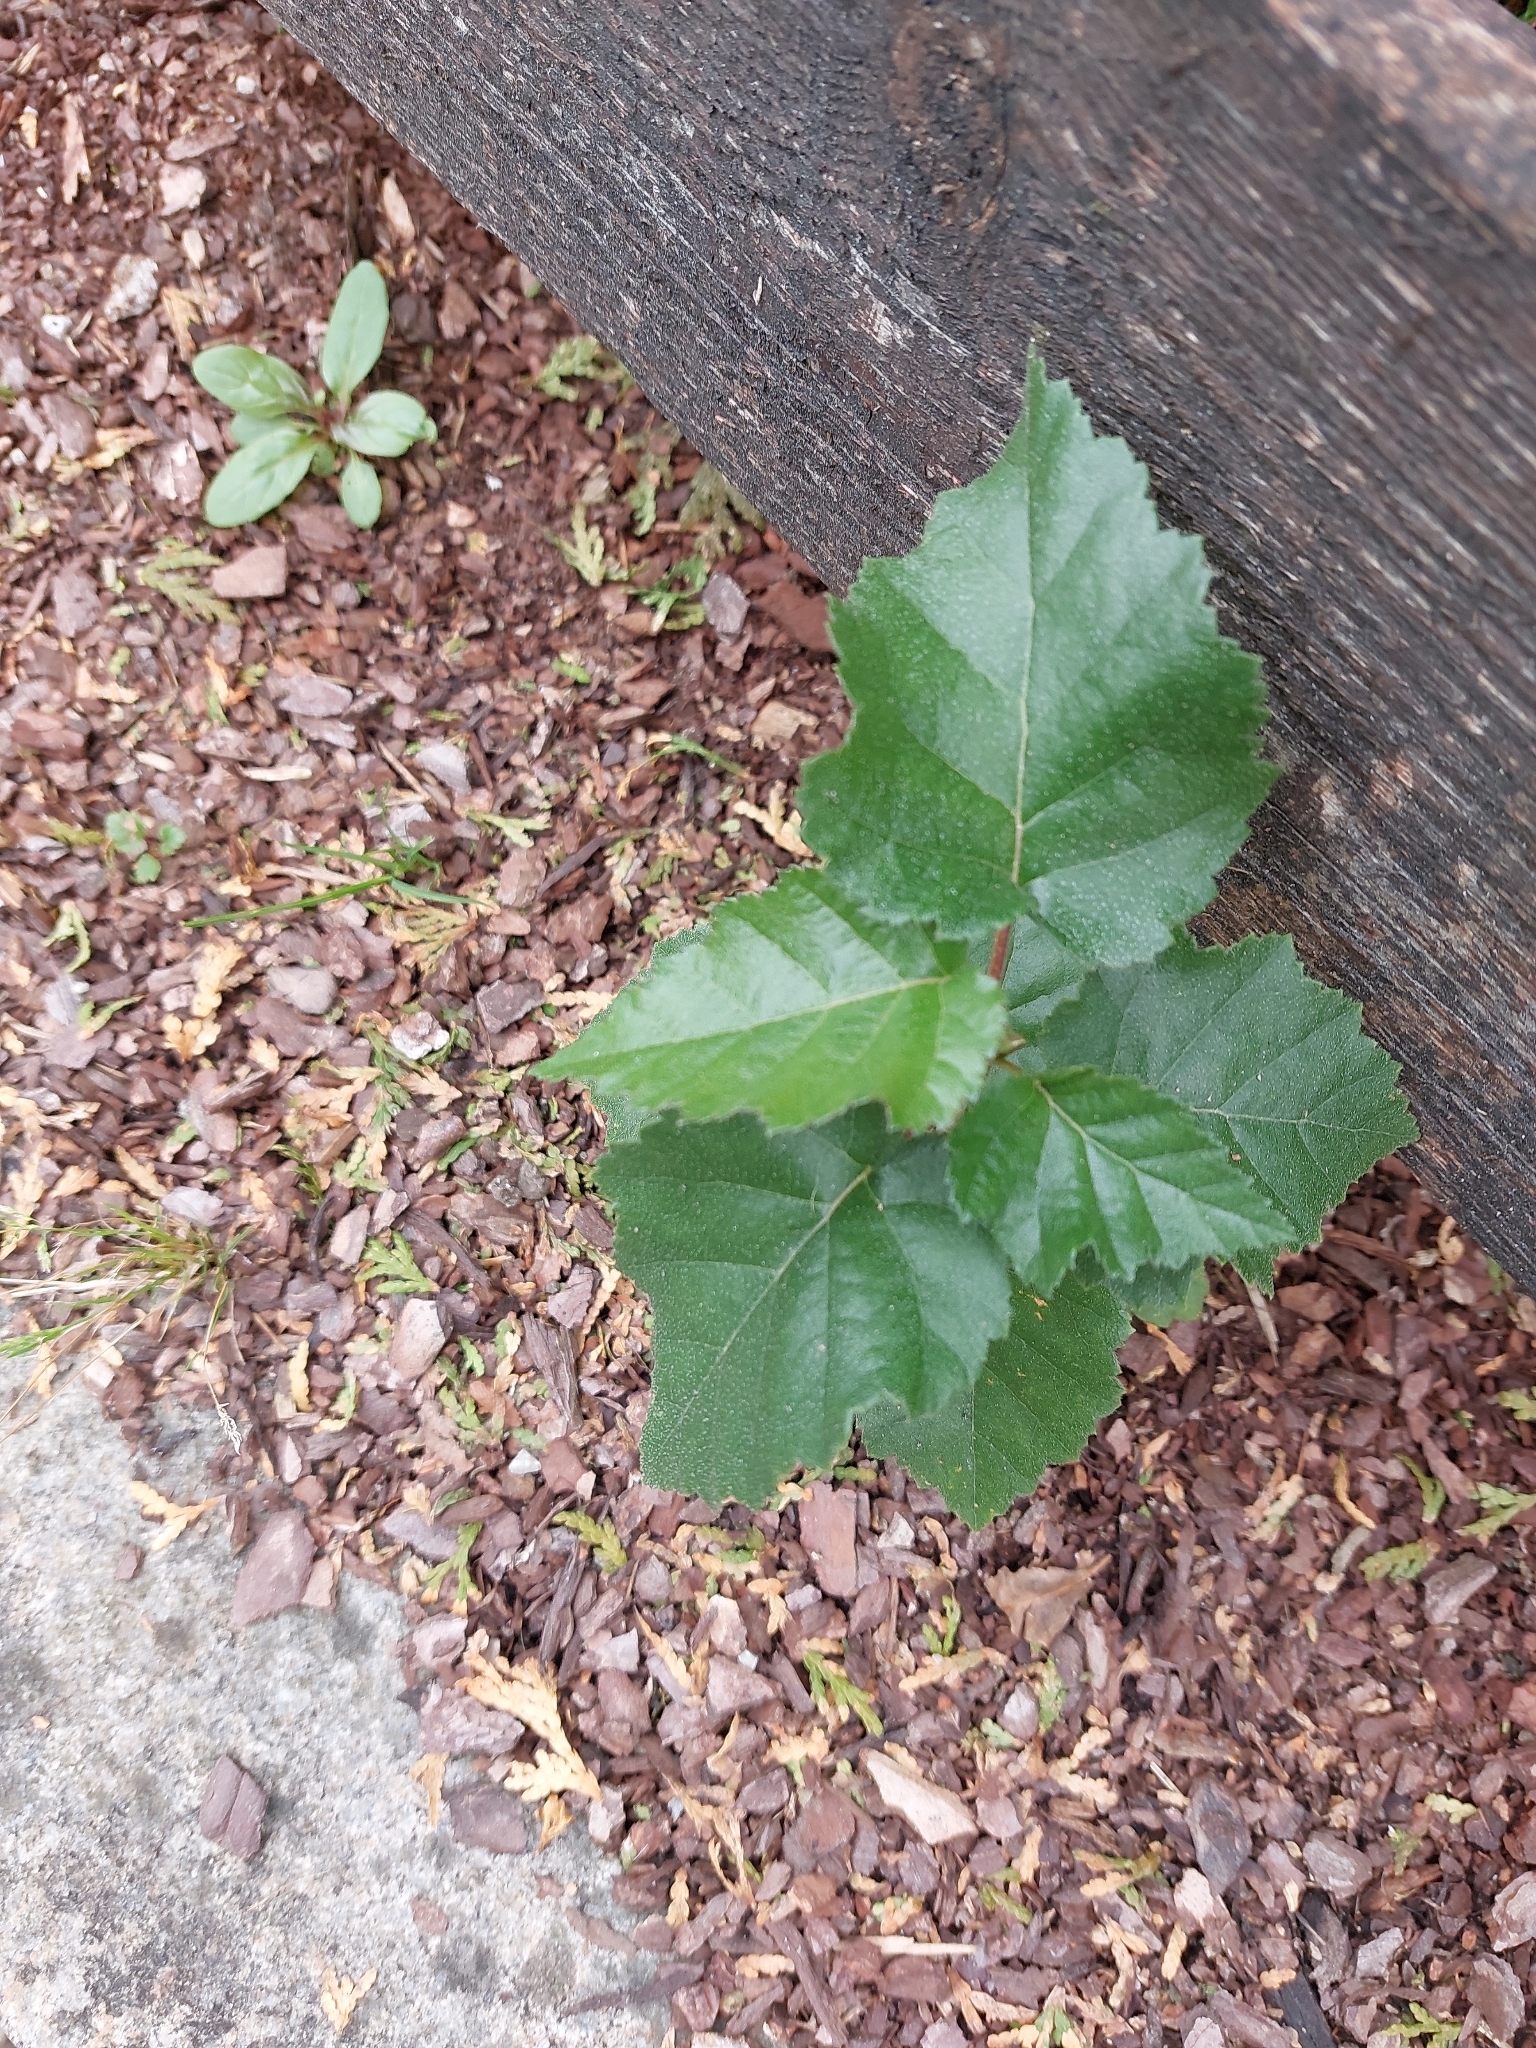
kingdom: Plantae
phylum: Tracheophyta
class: Magnoliopsida
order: Fagales
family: Betulaceae
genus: Betula
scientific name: Betula pendula
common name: Silver birch
